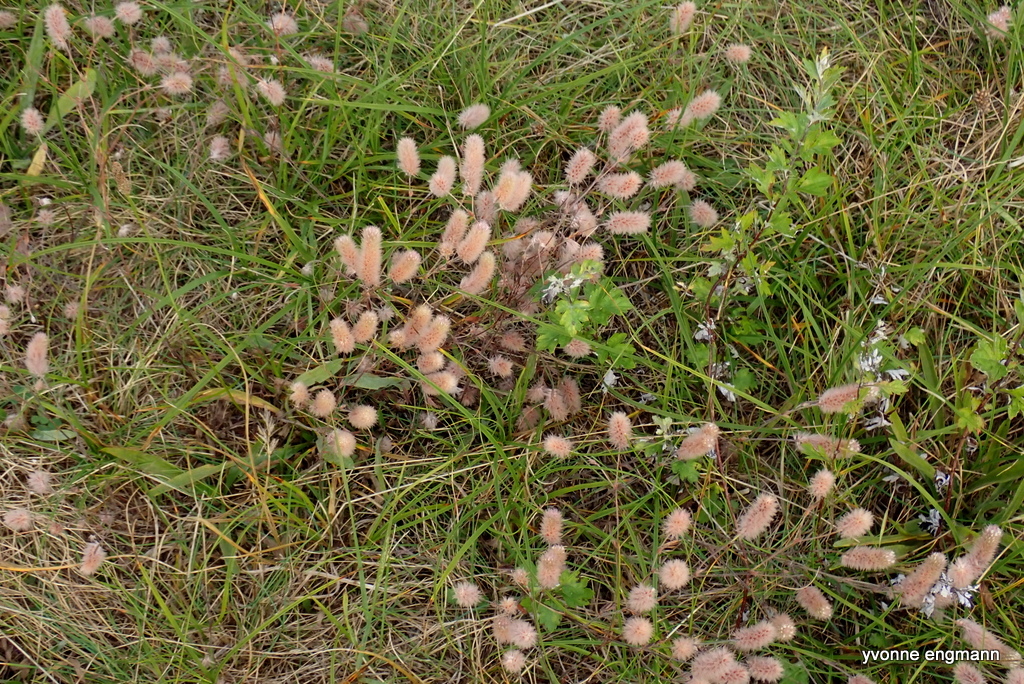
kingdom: Plantae
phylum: Tracheophyta
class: Magnoliopsida
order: Fabales
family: Fabaceae
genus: Trifolium
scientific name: Trifolium arvense
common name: Hare's-foot clover
